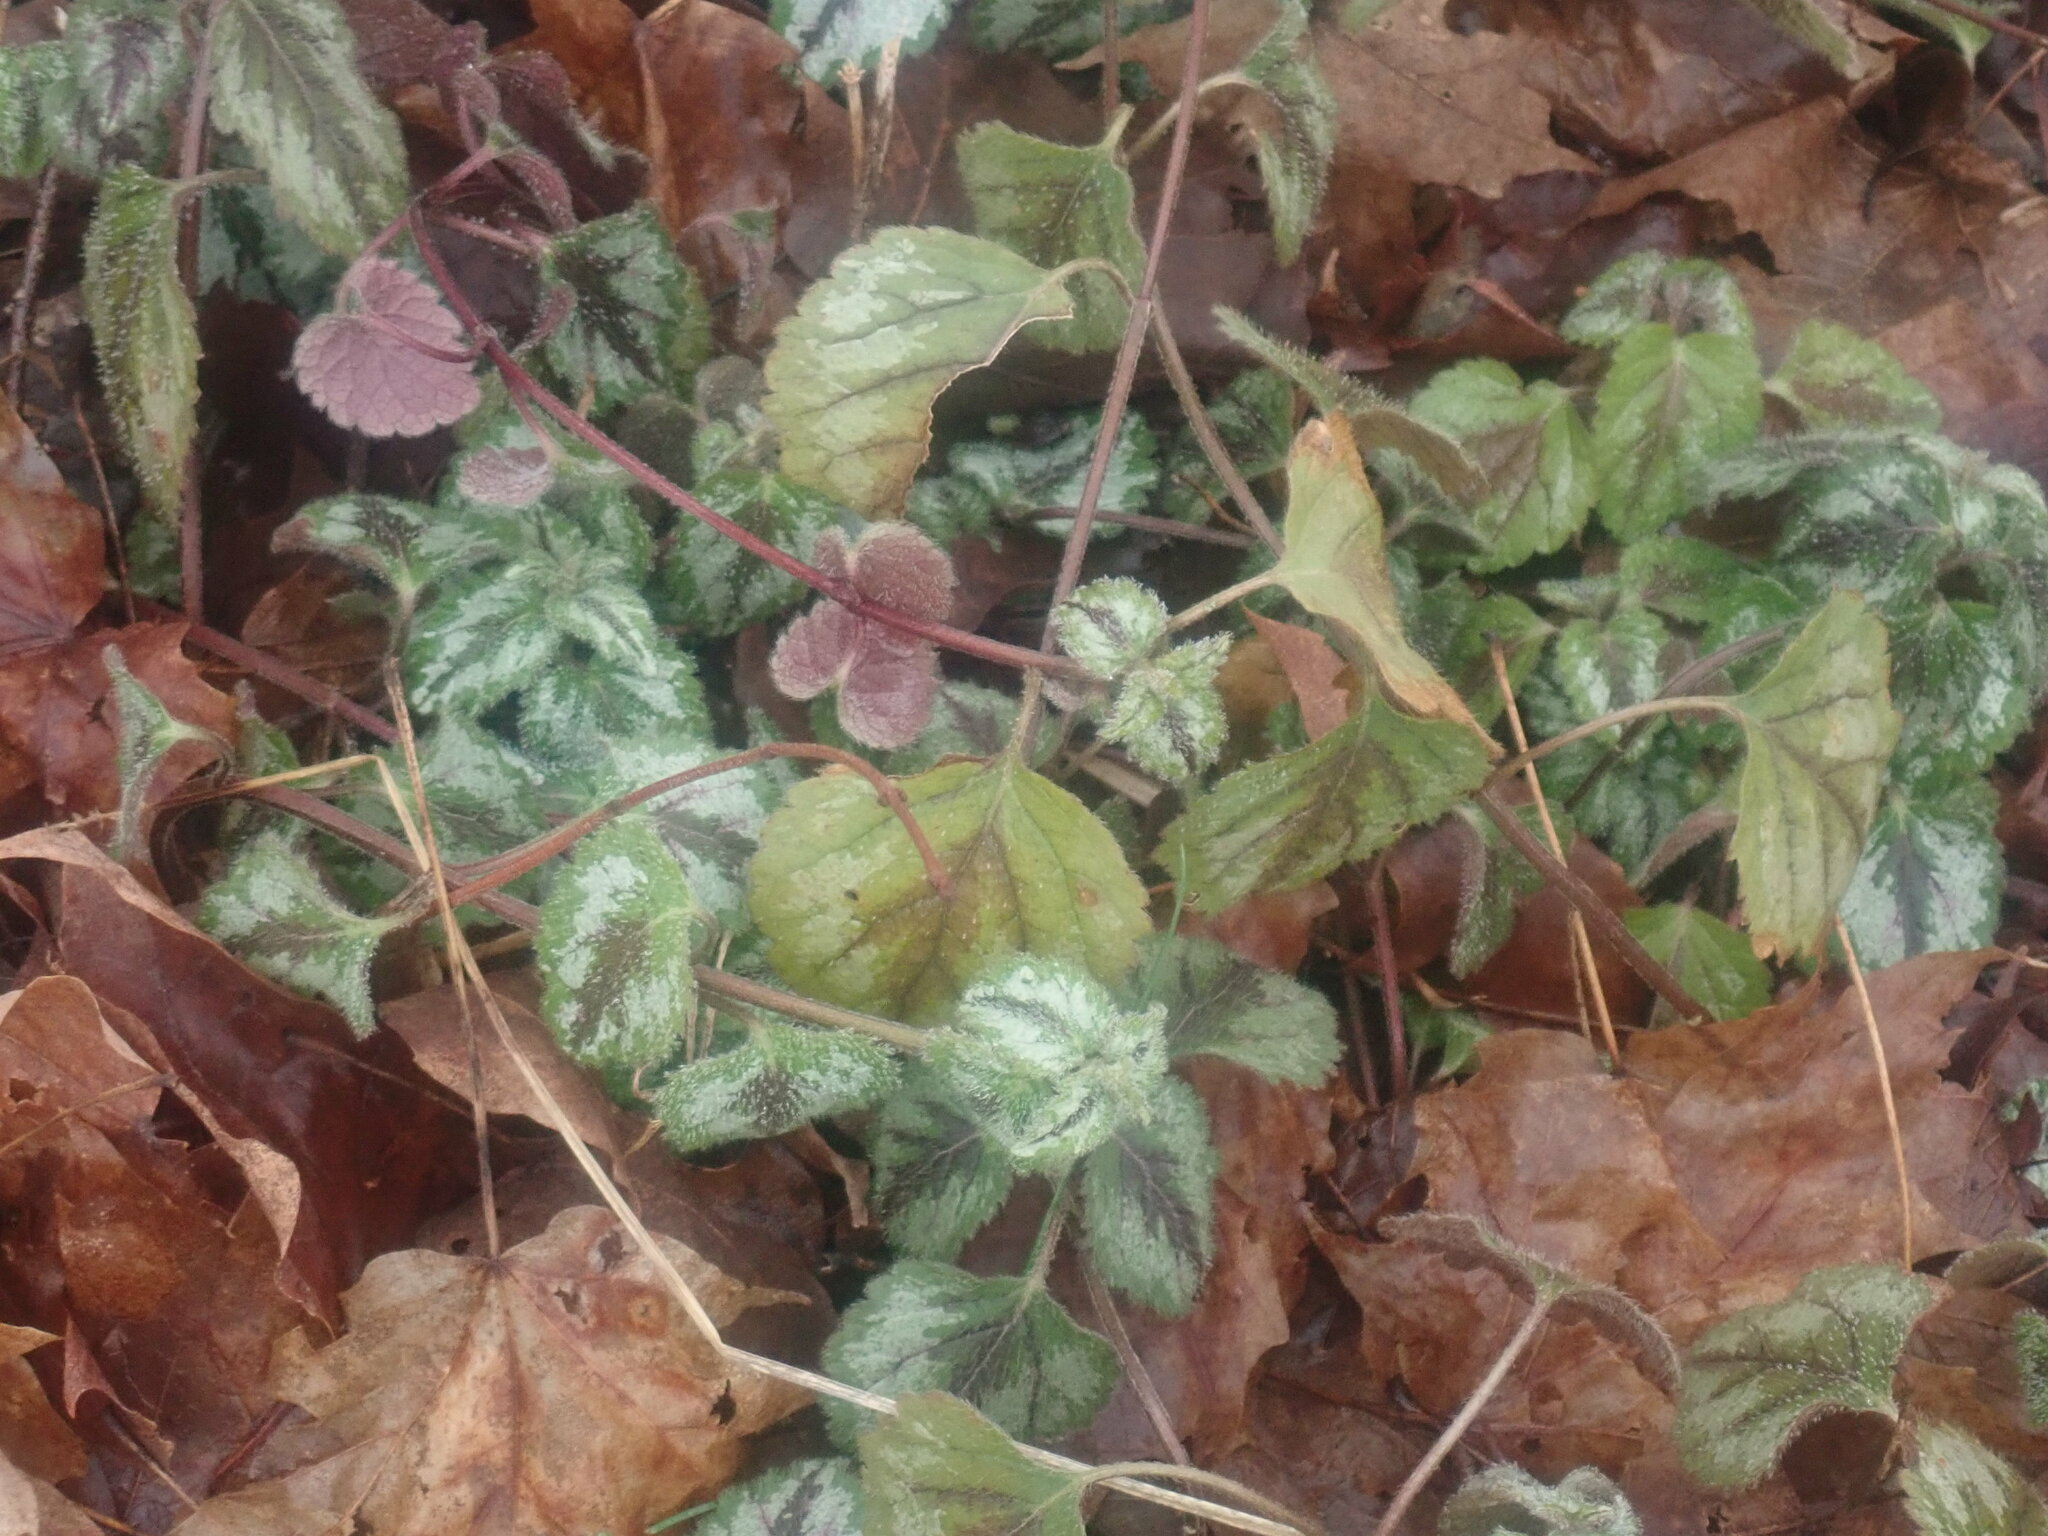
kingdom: Plantae
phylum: Tracheophyta
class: Magnoliopsida
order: Lamiales
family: Lamiaceae
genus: Lamium
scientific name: Lamium galeobdolon
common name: Yellow archangel
